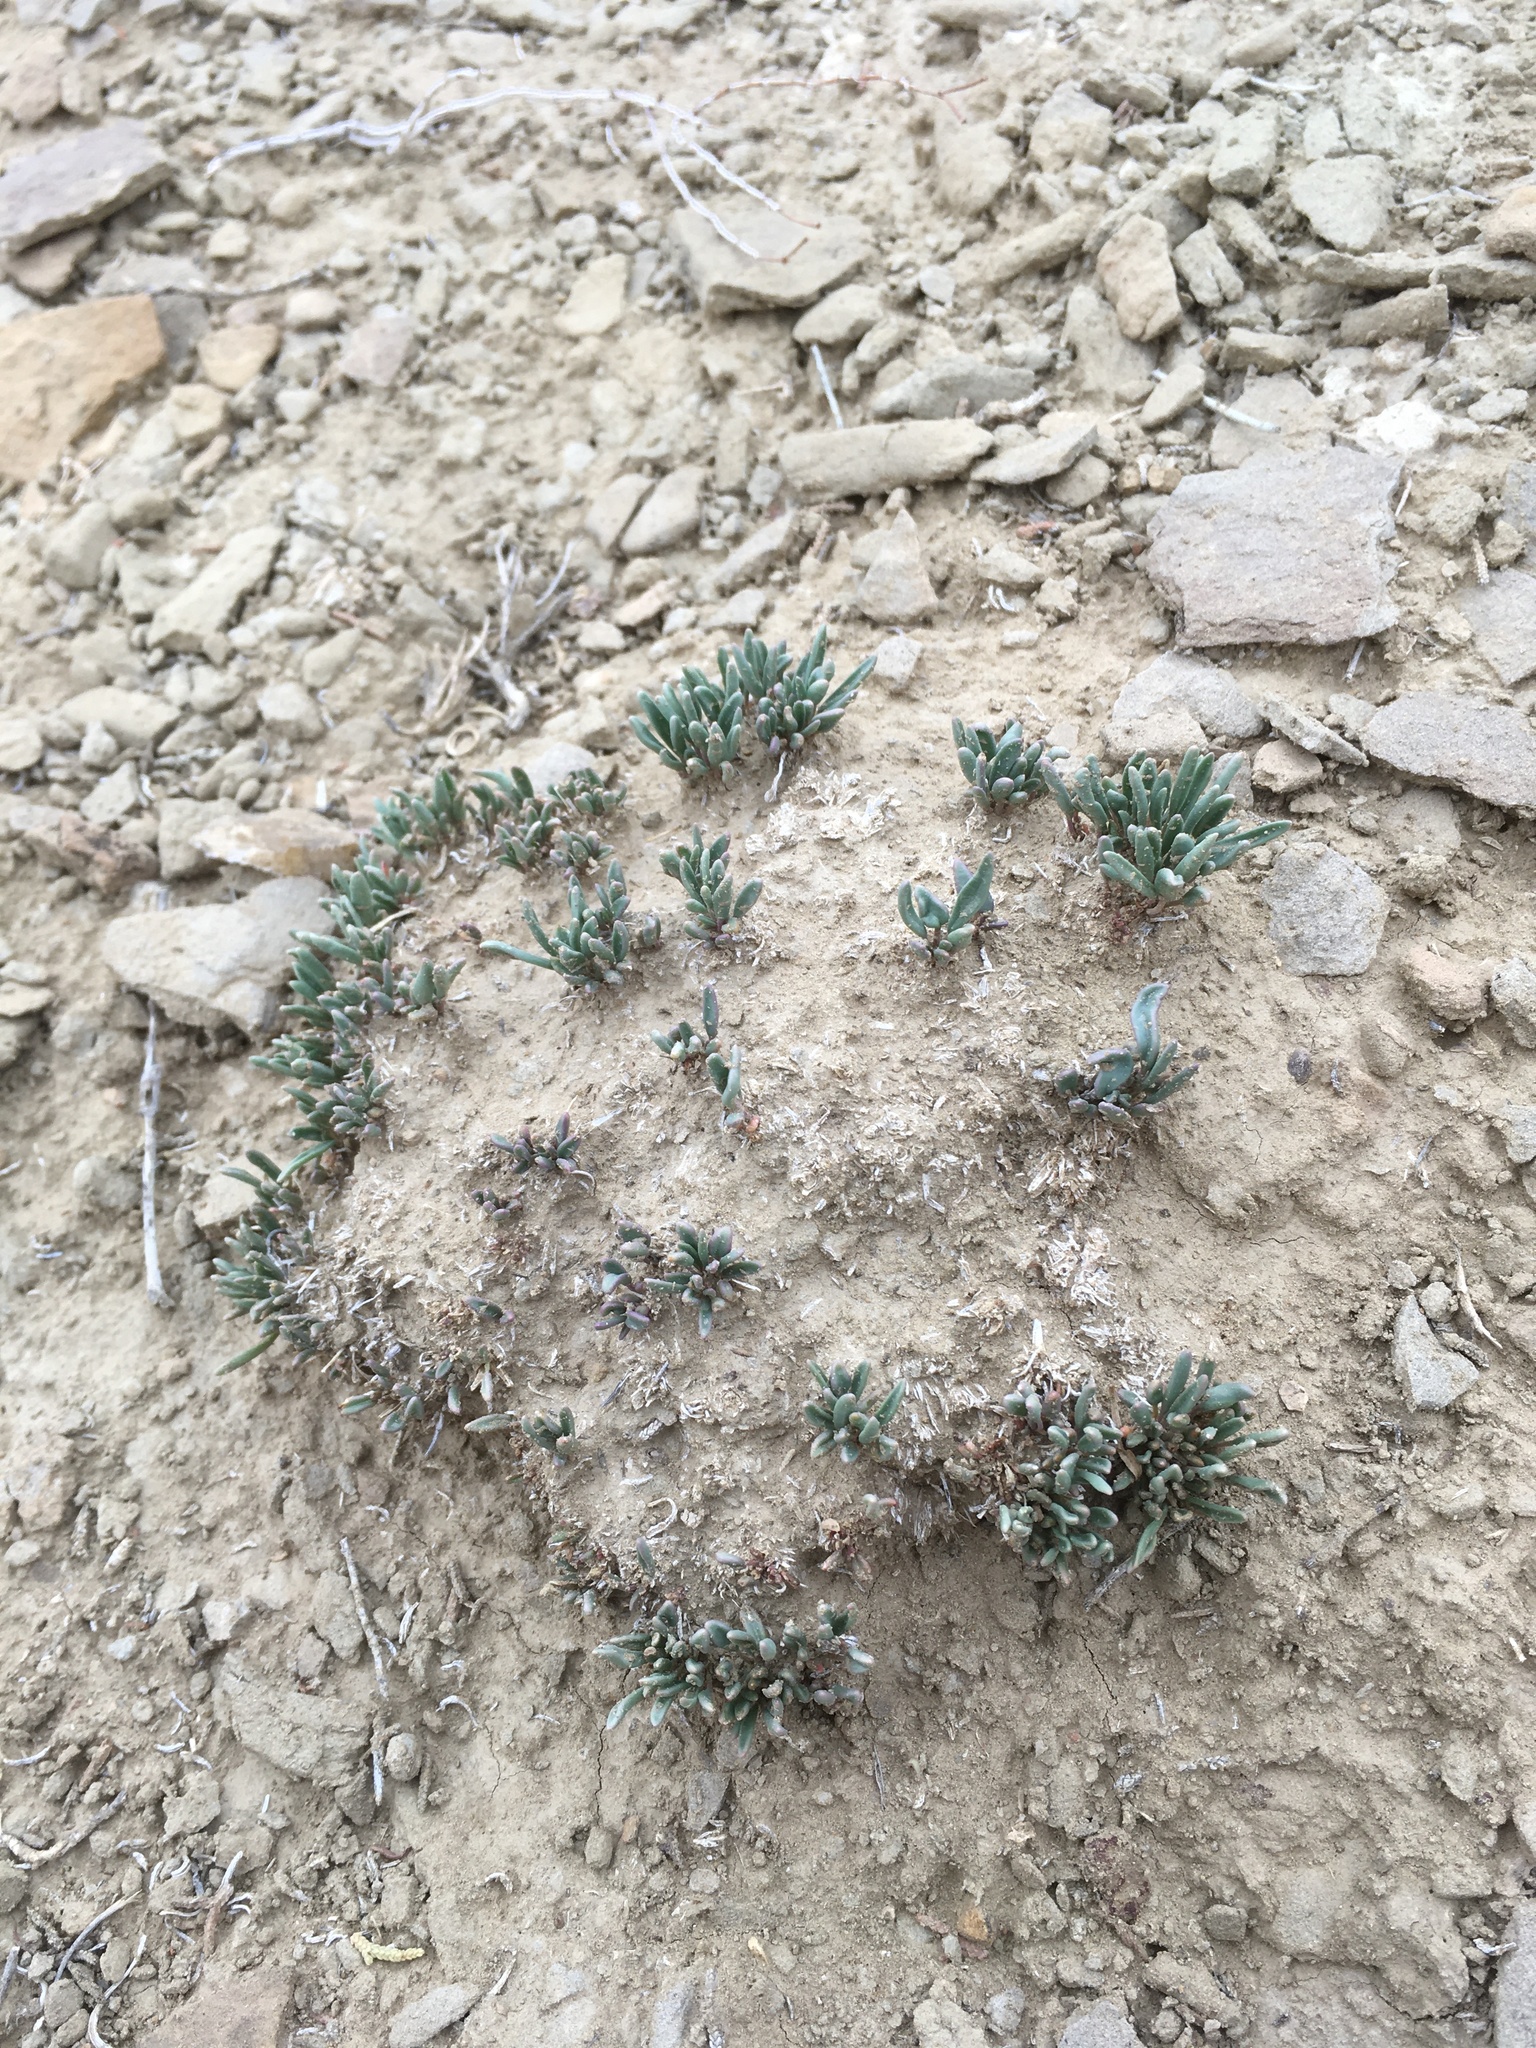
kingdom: Plantae
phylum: Tracheophyta
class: Magnoliopsida
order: Caryophyllales
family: Nyctaginaceae
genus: Abronia
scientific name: Abronia bigelovii
